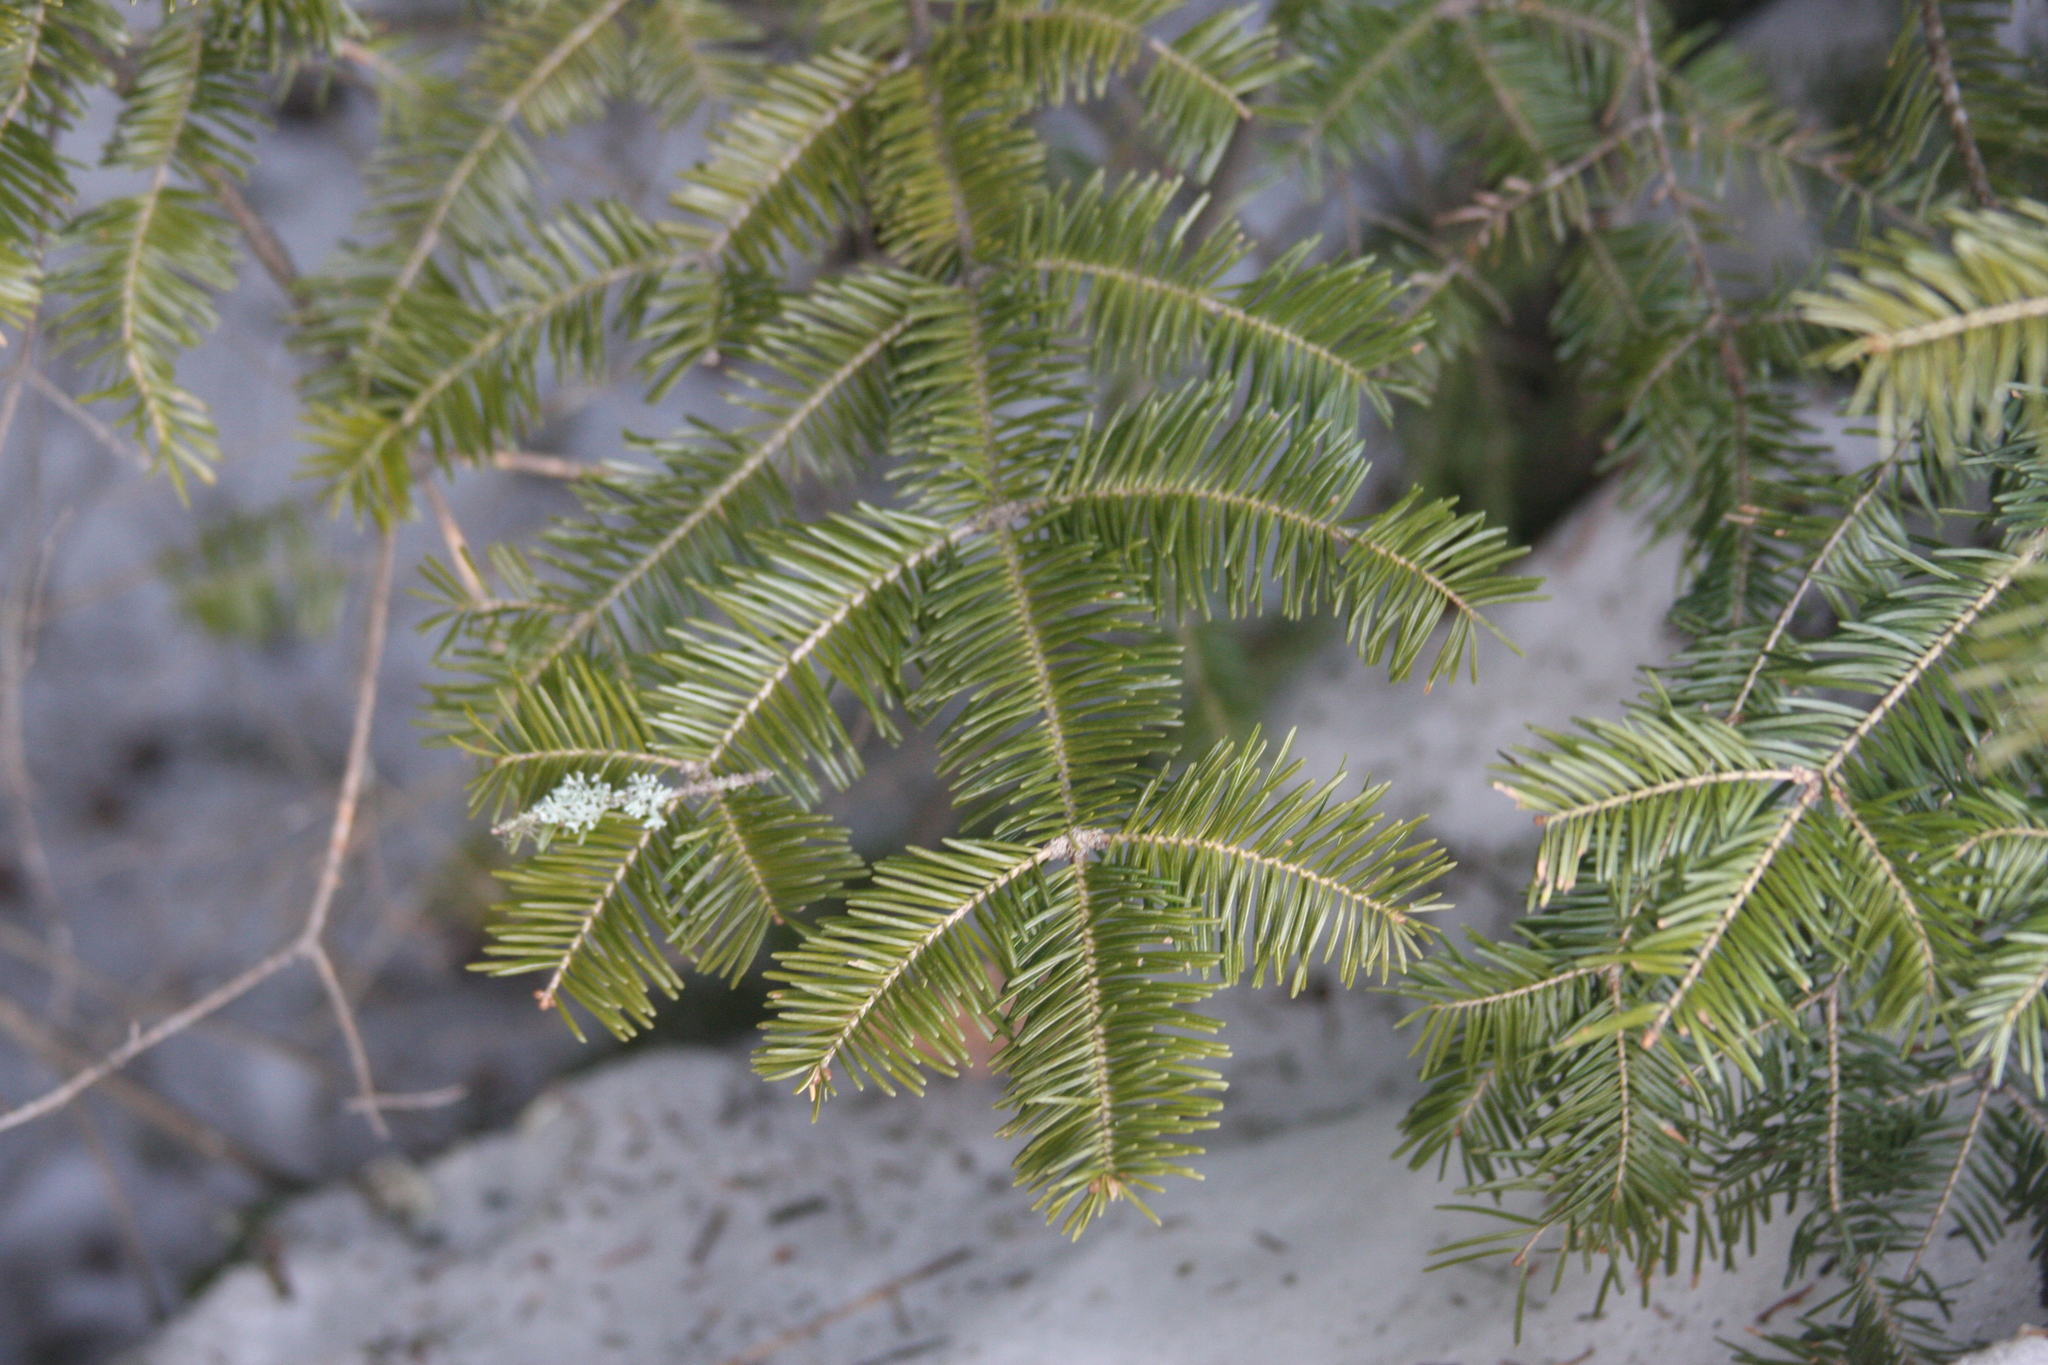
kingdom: Plantae
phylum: Tracheophyta
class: Pinopsida
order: Pinales
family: Pinaceae
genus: Abies
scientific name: Abies balsamea
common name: Balsam fir
